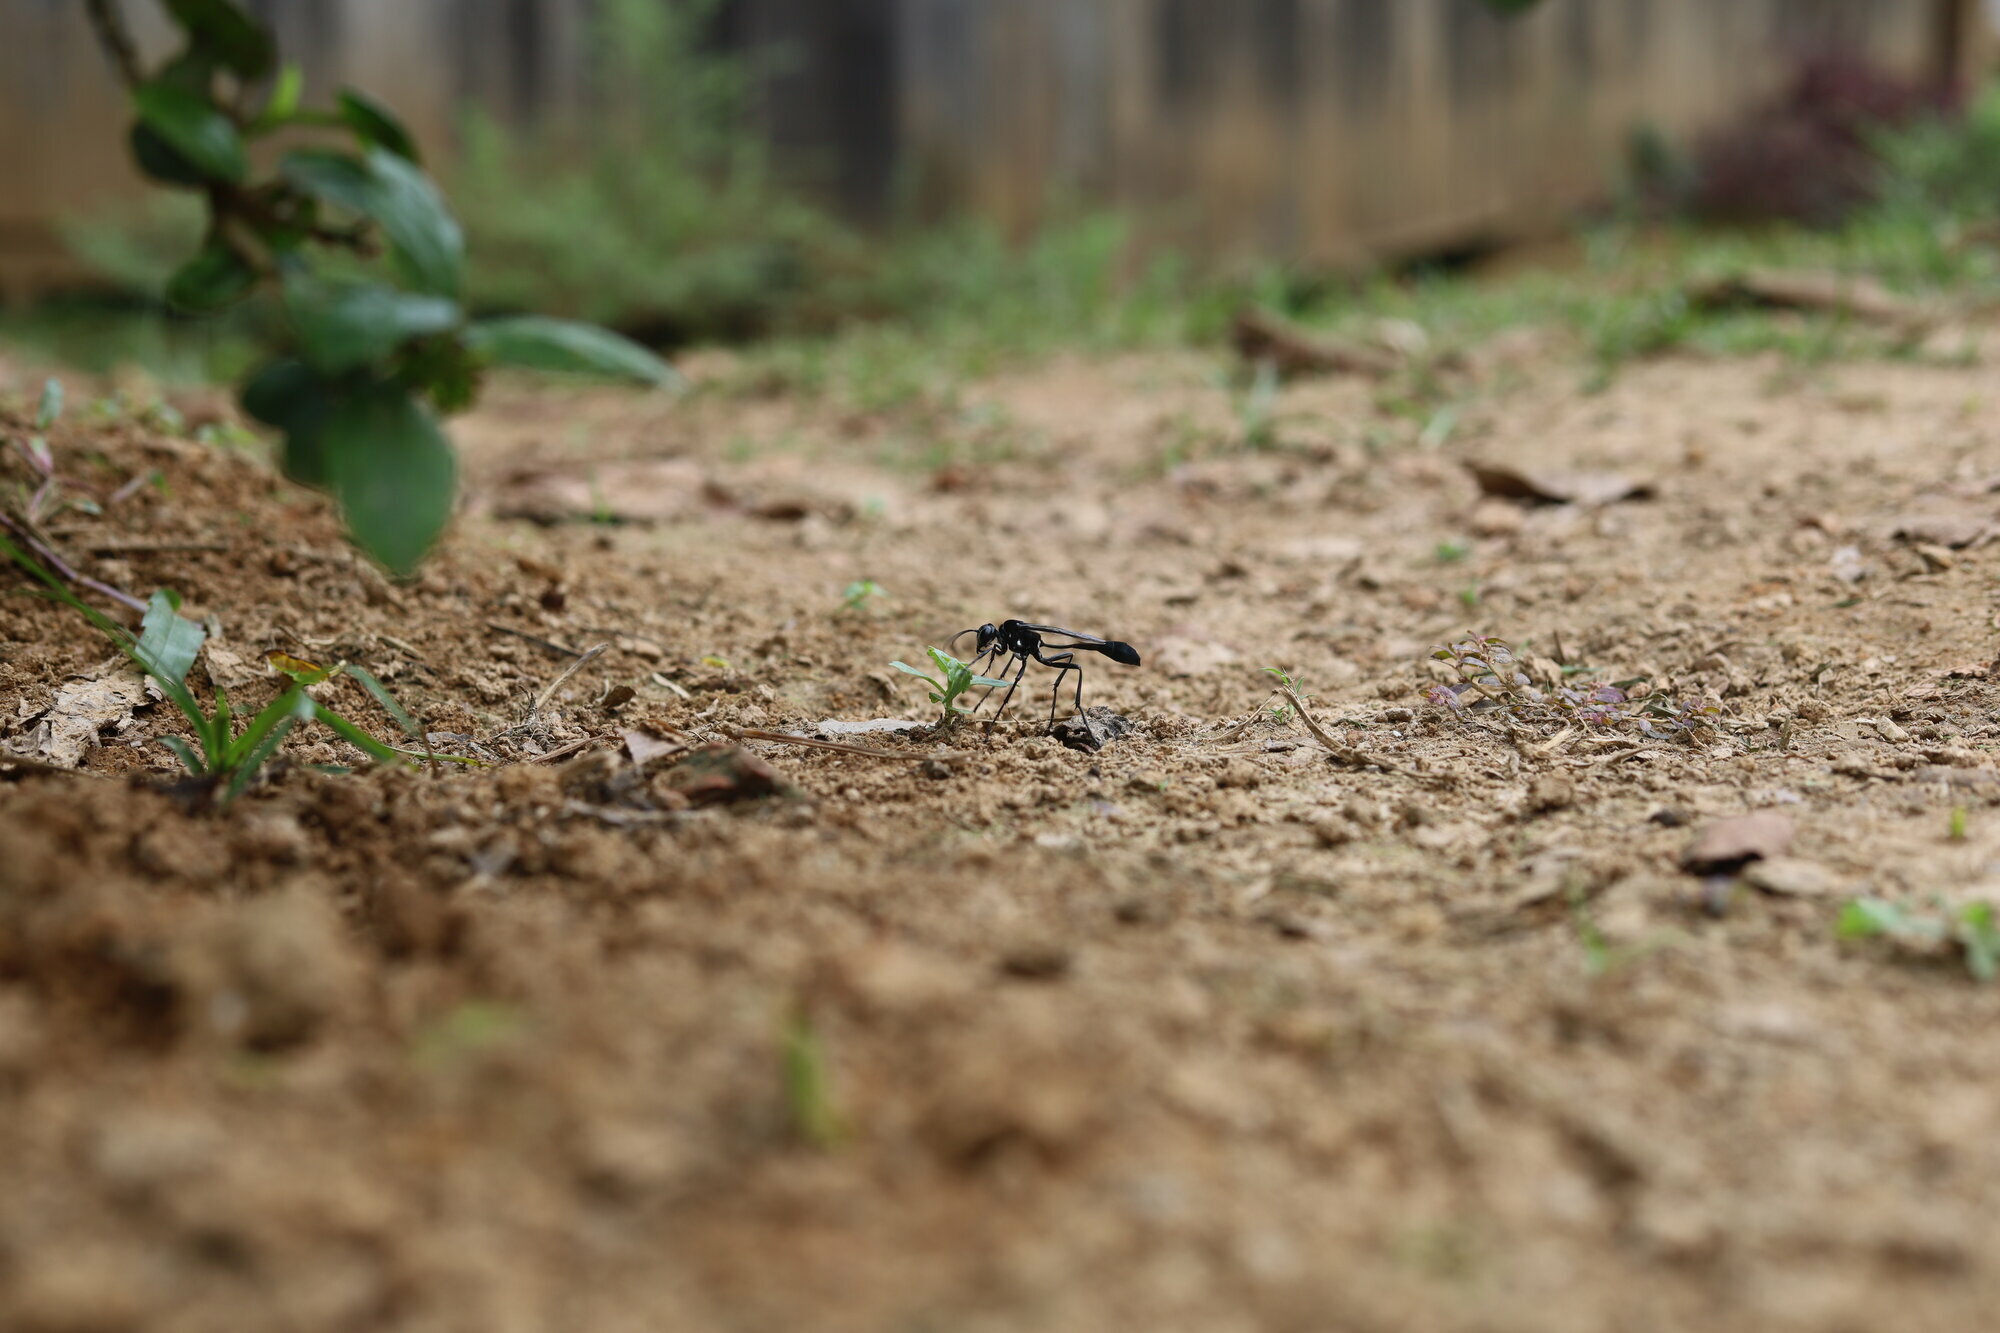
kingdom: Animalia
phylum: Arthropoda
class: Insecta
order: Hymenoptera
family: Sphecidae
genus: Eremnophila
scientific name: Eremnophila opulenta
